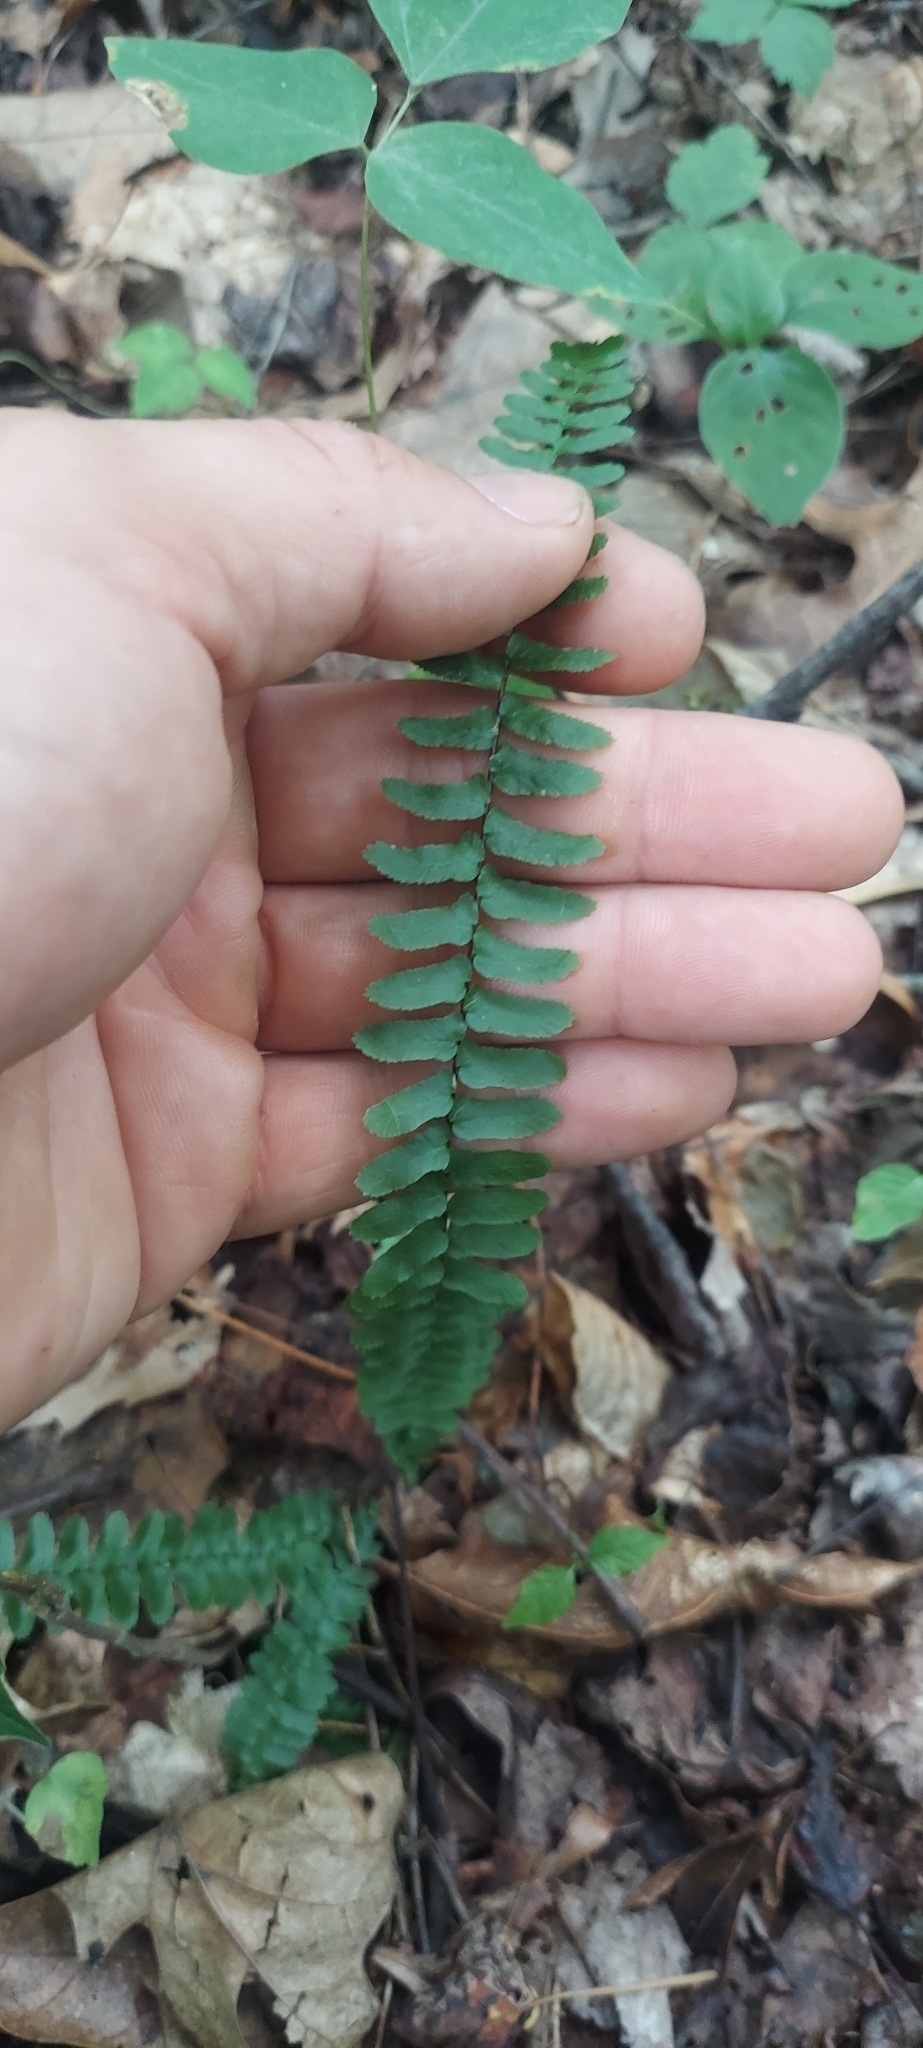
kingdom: Plantae
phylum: Tracheophyta
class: Polypodiopsida
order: Polypodiales
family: Aspleniaceae
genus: Asplenium
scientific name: Asplenium platyneuron
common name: Ebony spleenwort
